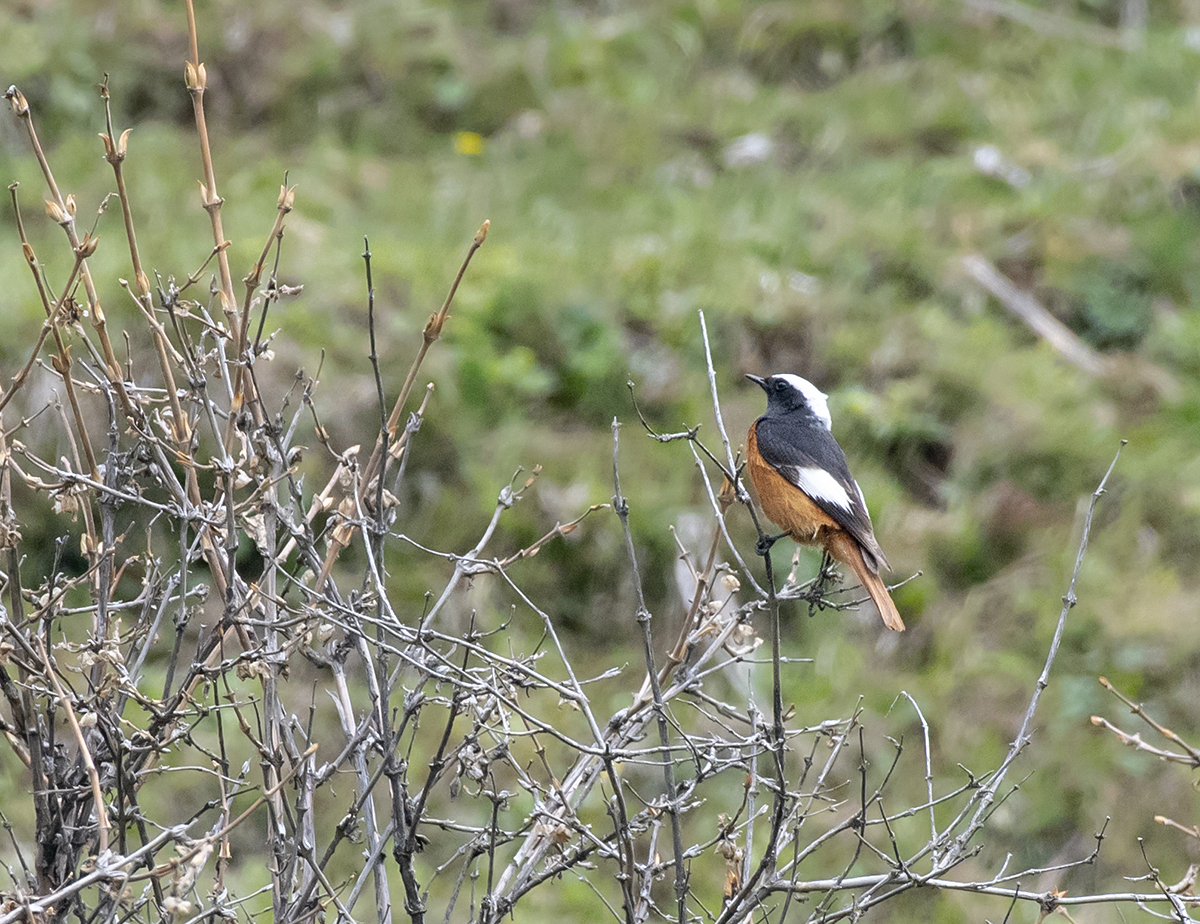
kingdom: Animalia
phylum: Chordata
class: Aves
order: Passeriformes
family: Muscicapidae
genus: Phoenicurus
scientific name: Phoenicurus erythrogastrus
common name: Güldenstädt's redstart
